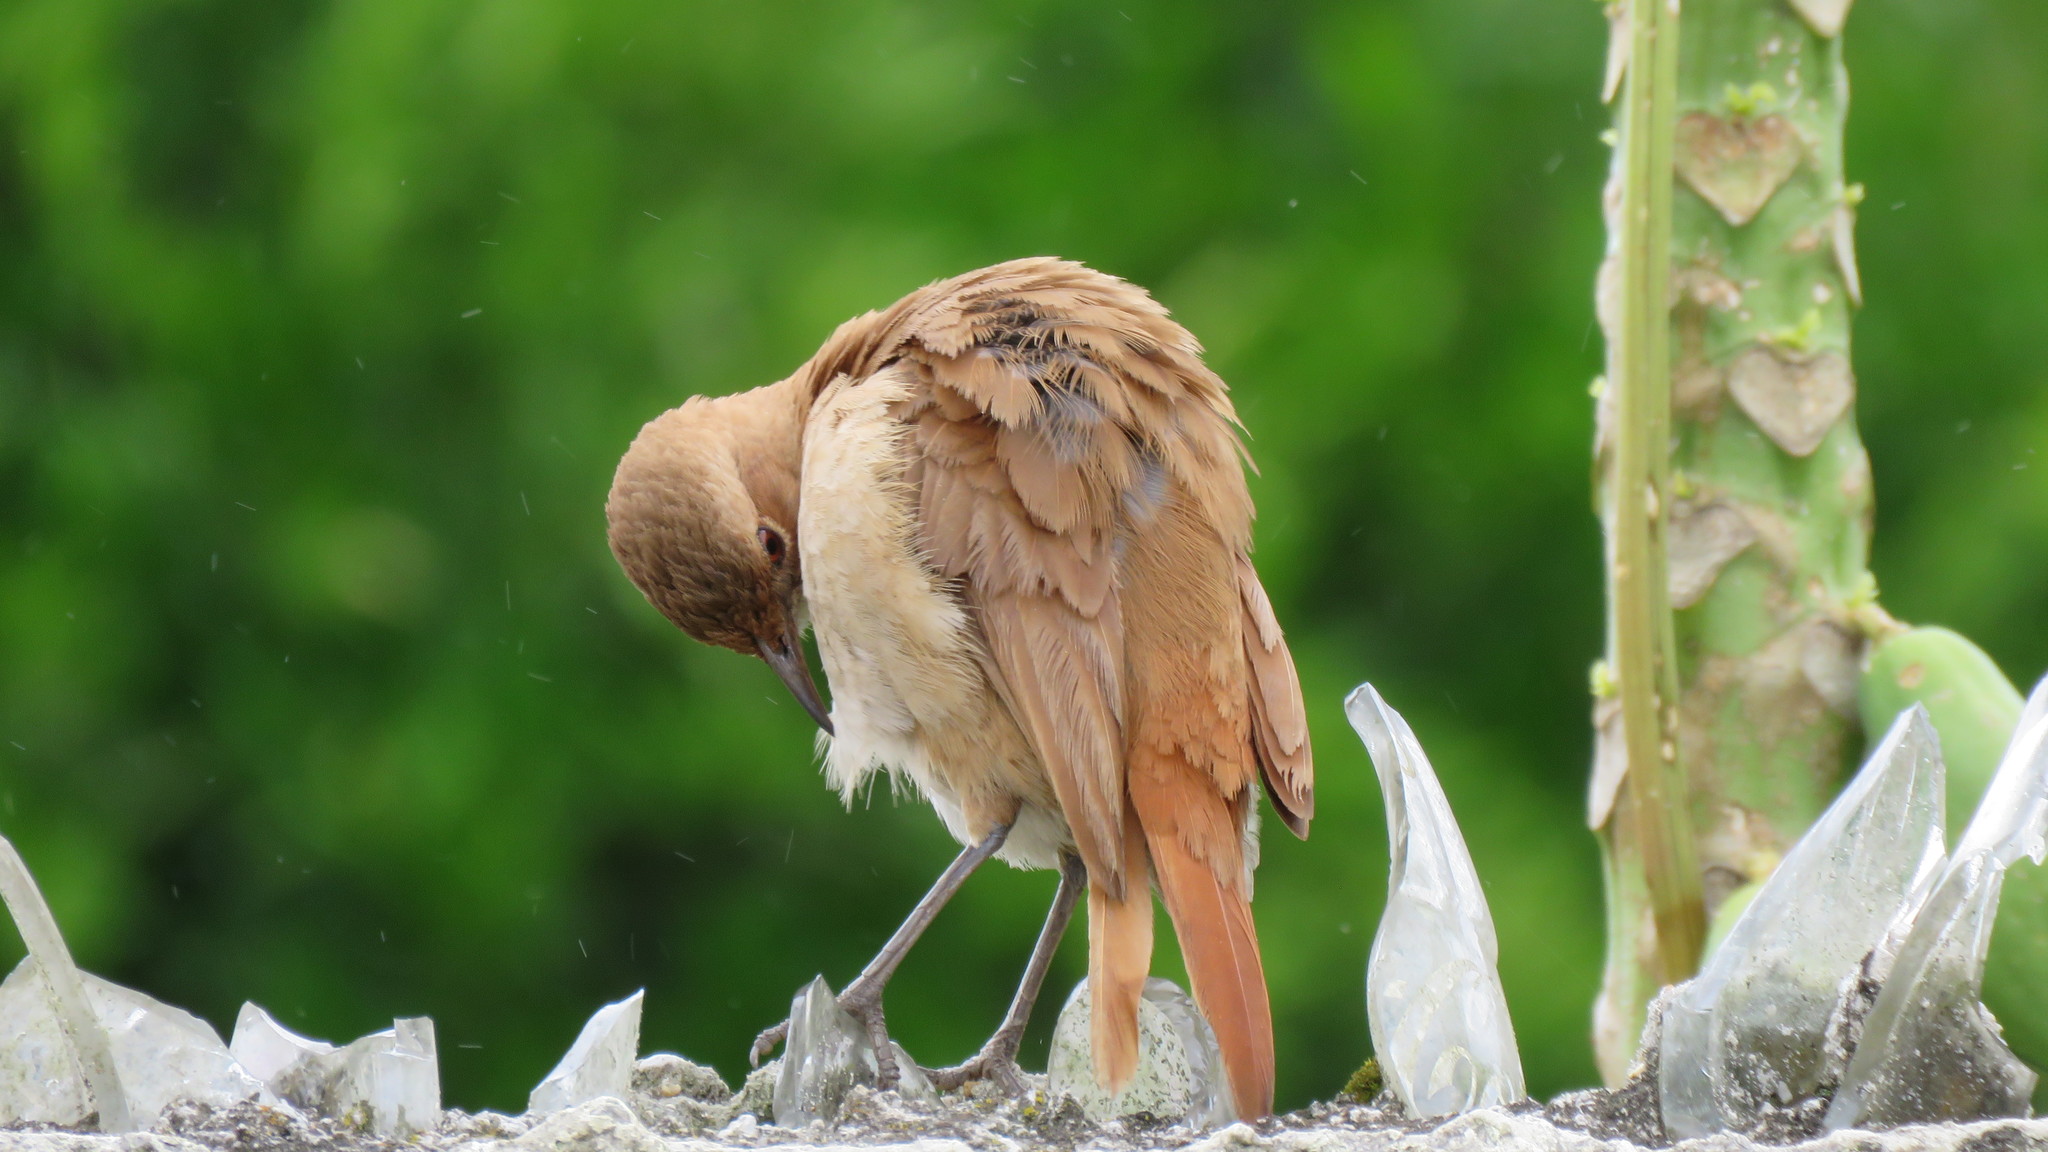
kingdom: Animalia
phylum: Chordata
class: Aves
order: Passeriformes
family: Furnariidae
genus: Furnarius
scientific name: Furnarius rufus
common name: Rufous hornero
